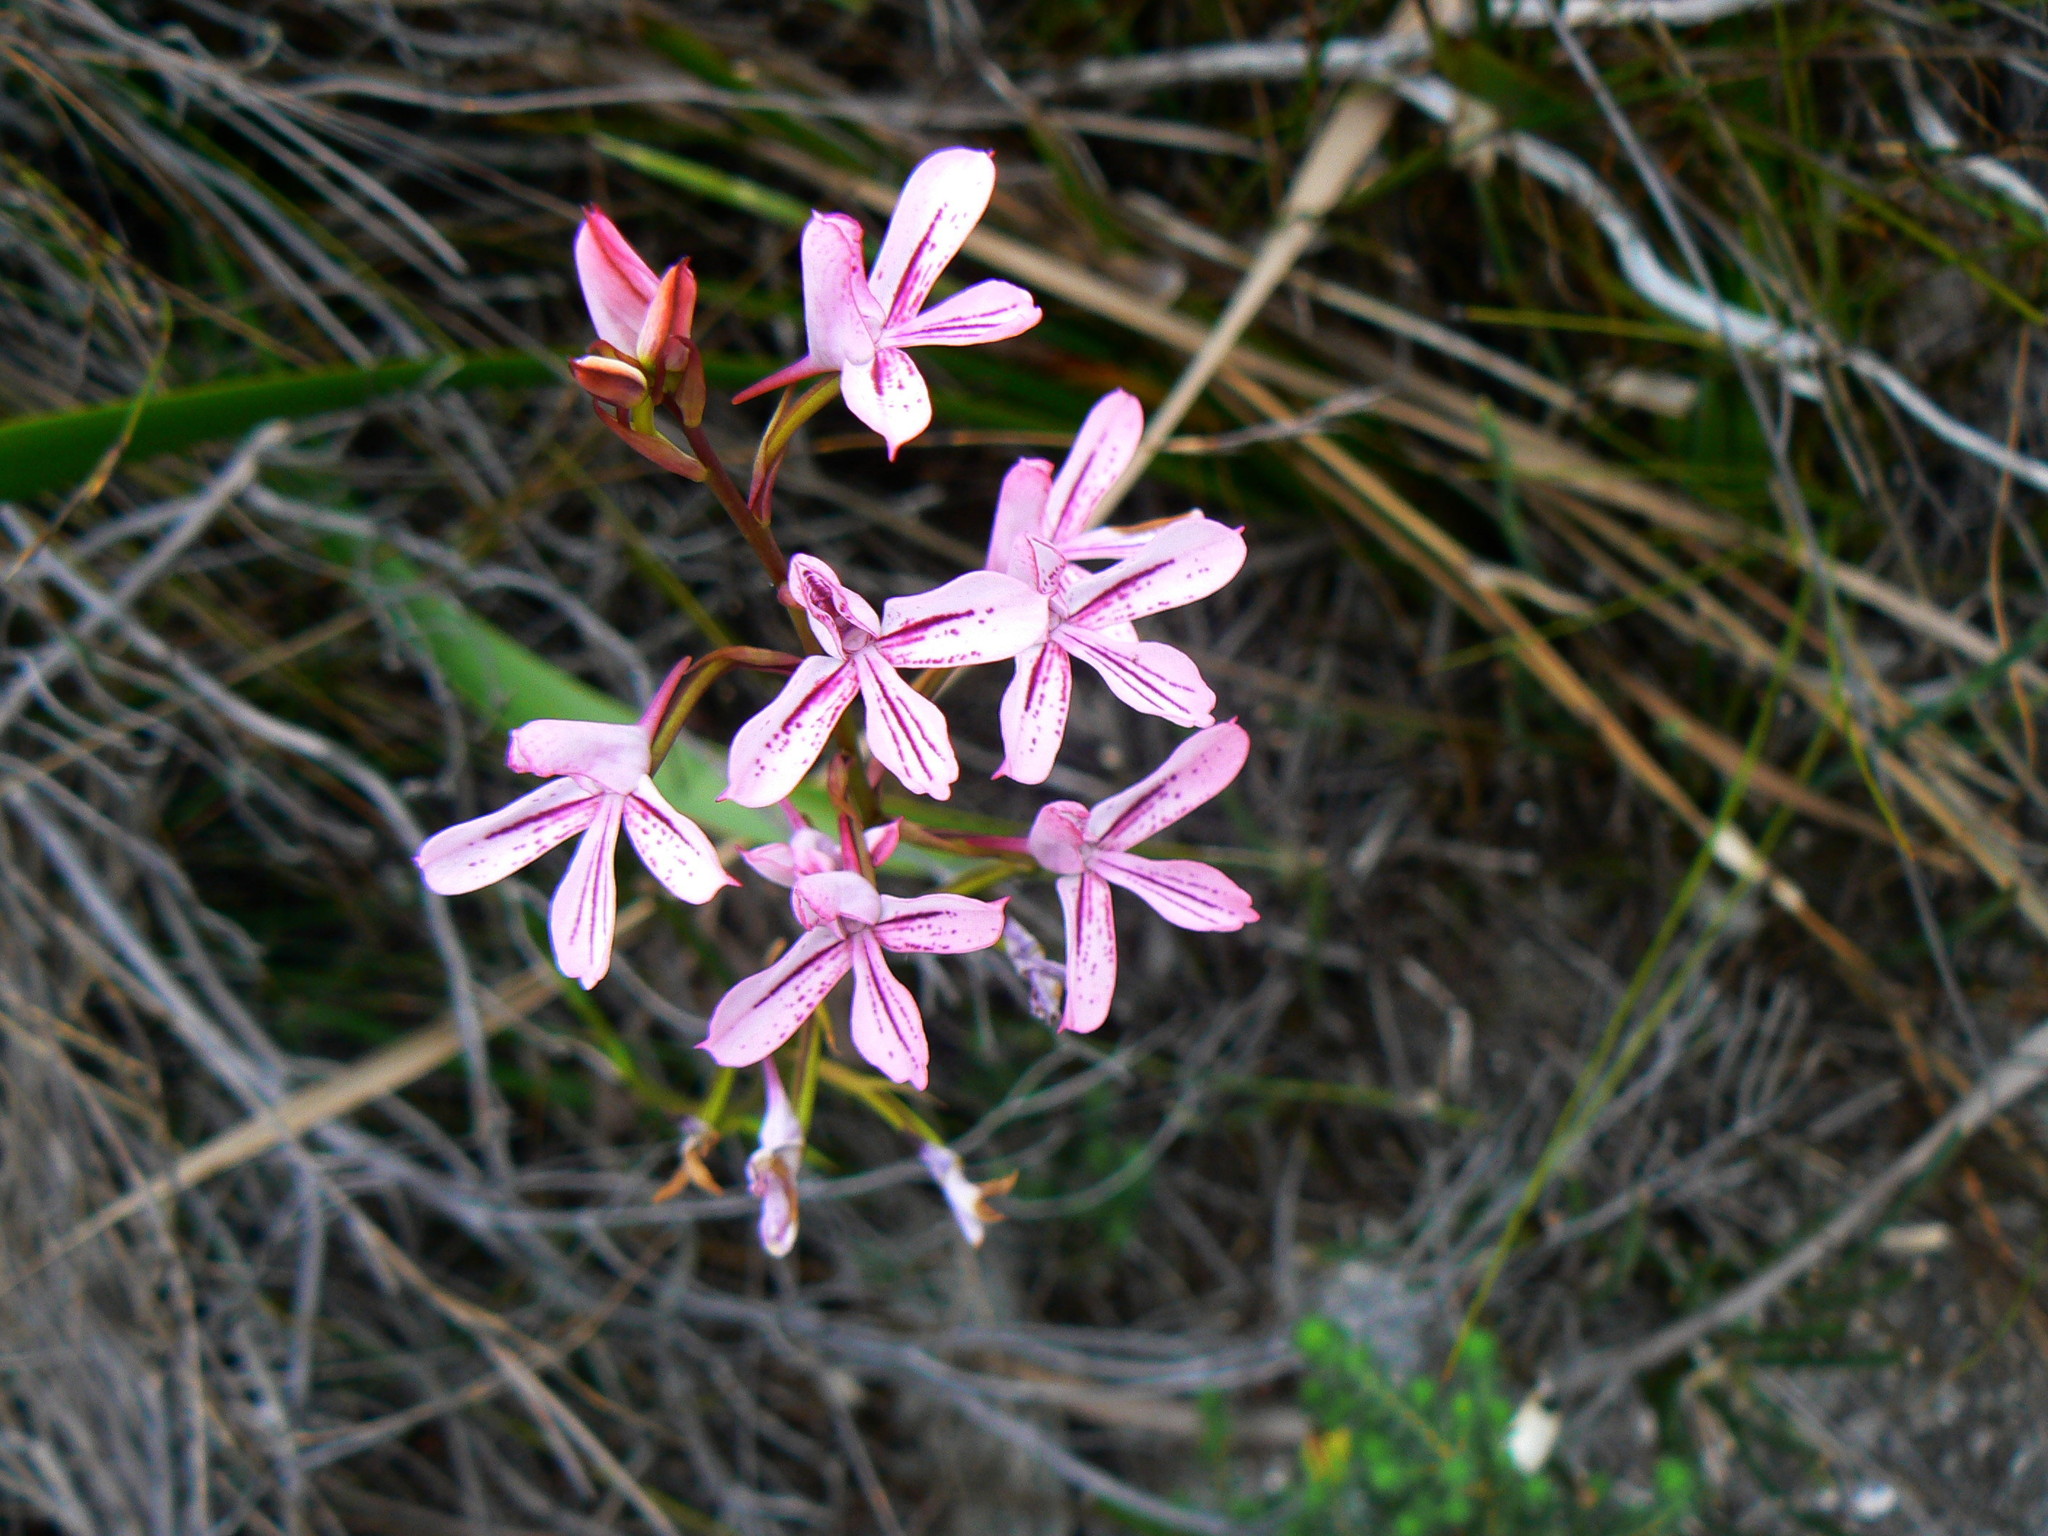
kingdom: Plantae
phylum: Tracheophyta
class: Liliopsida
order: Asparagales
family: Orchidaceae
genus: Disa
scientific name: Disa gladioliflora
